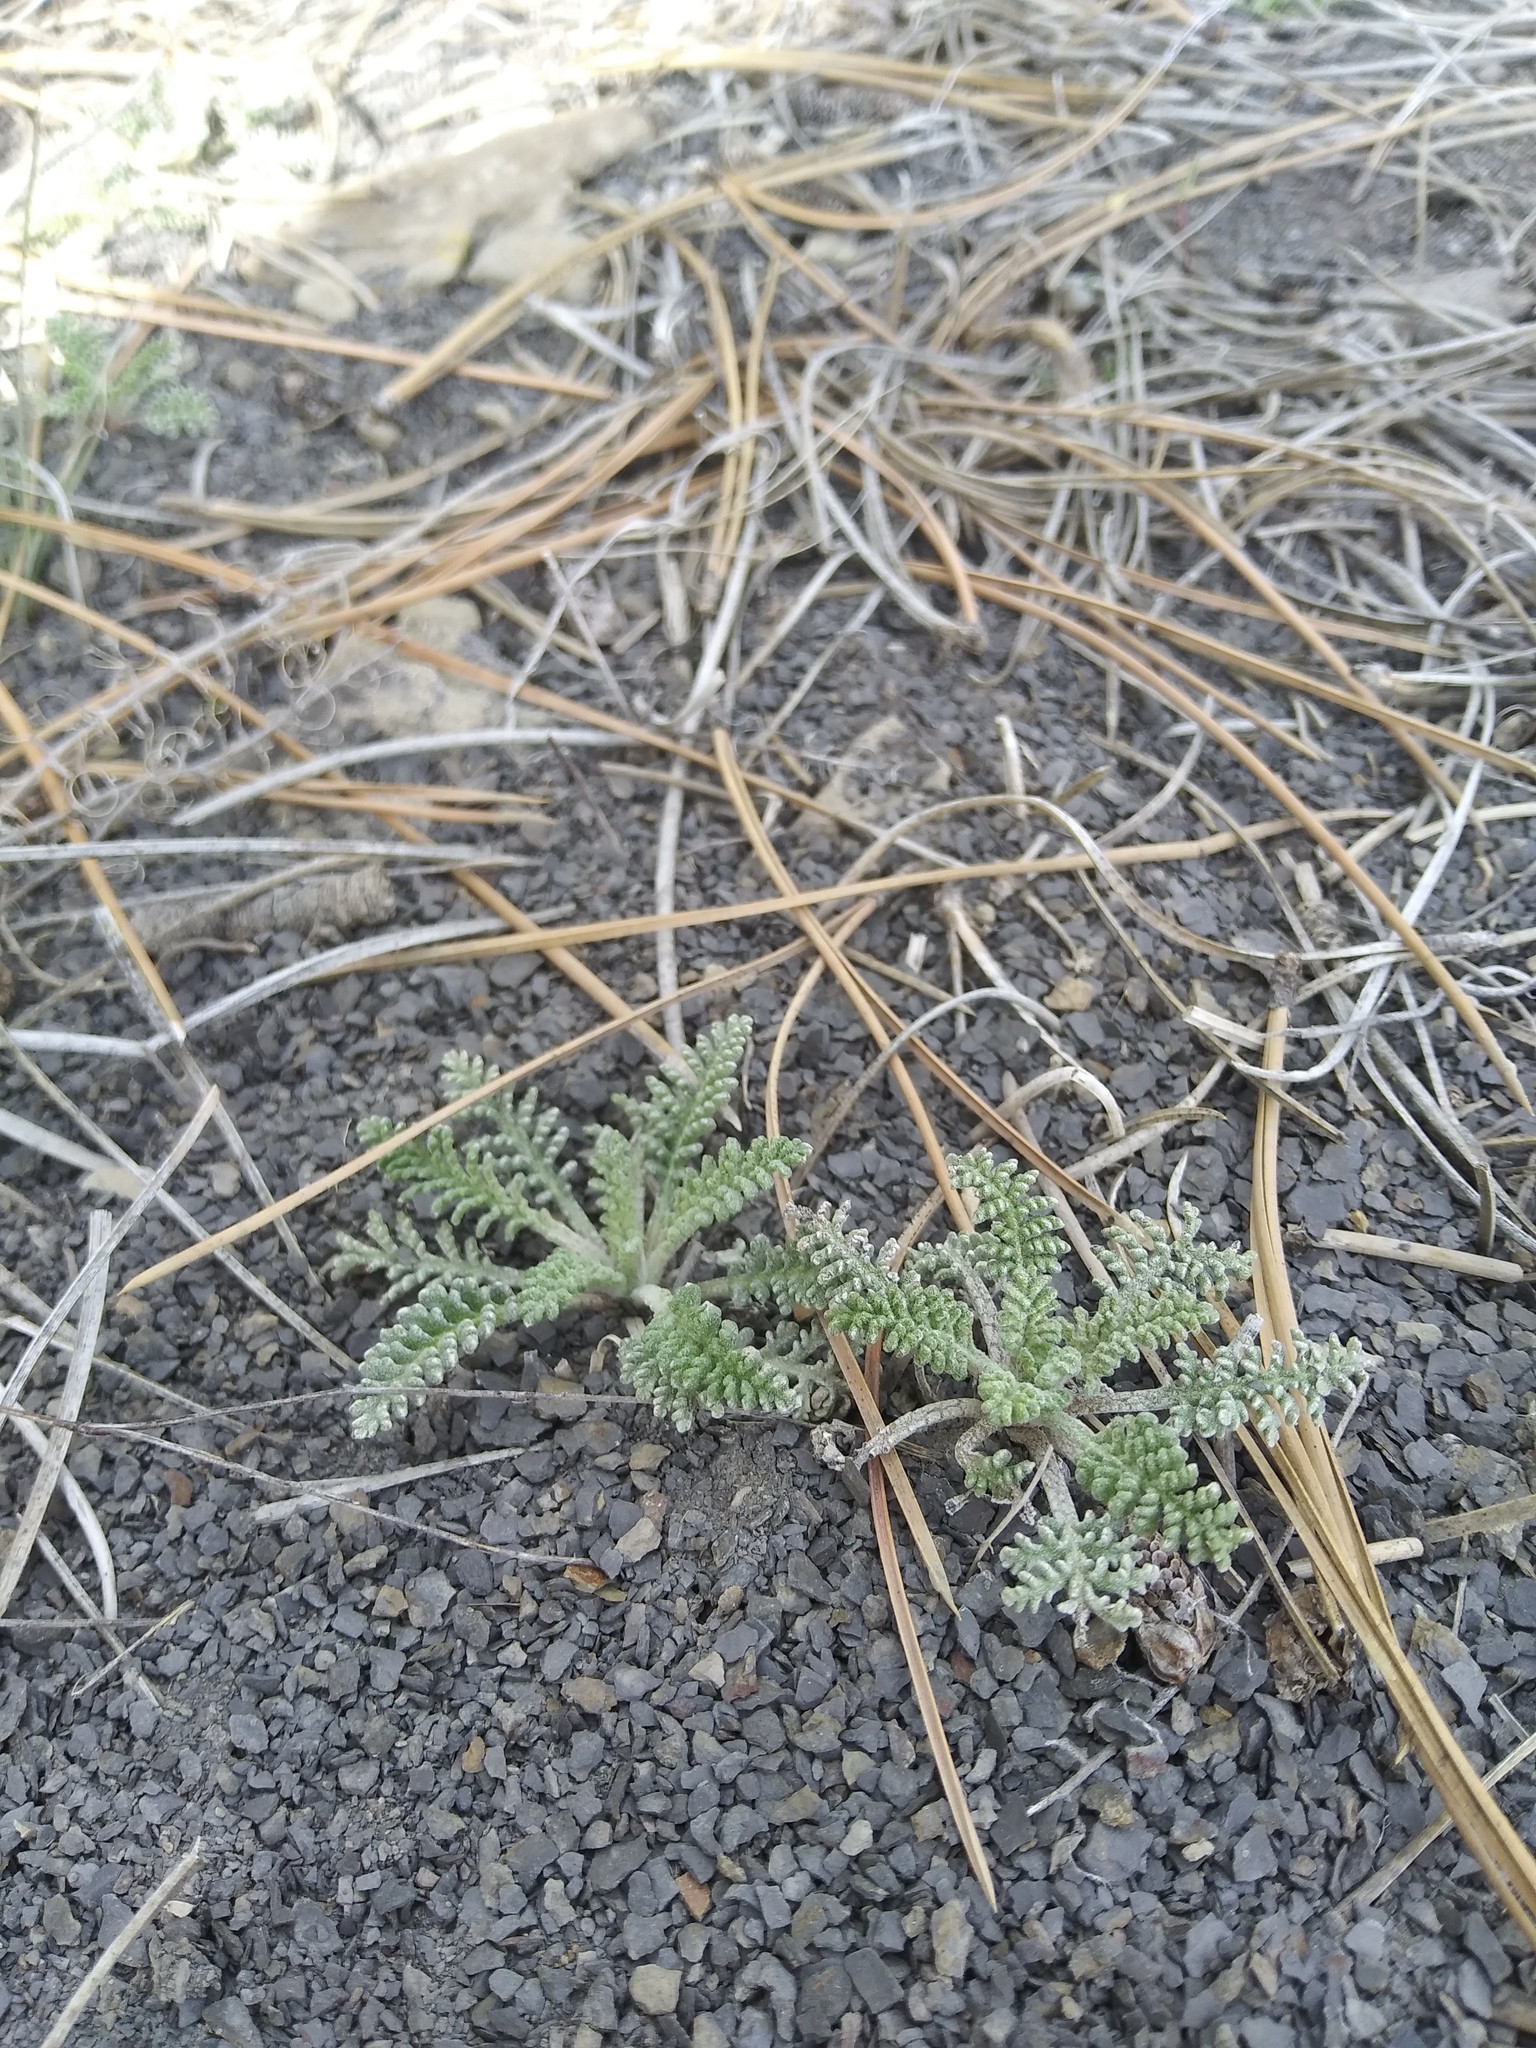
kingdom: Plantae
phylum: Tracheophyta
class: Magnoliopsida
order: Asterales
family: Asteraceae
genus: Chaenactis
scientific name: Chaenactis douglasii
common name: Hoary pincushion
